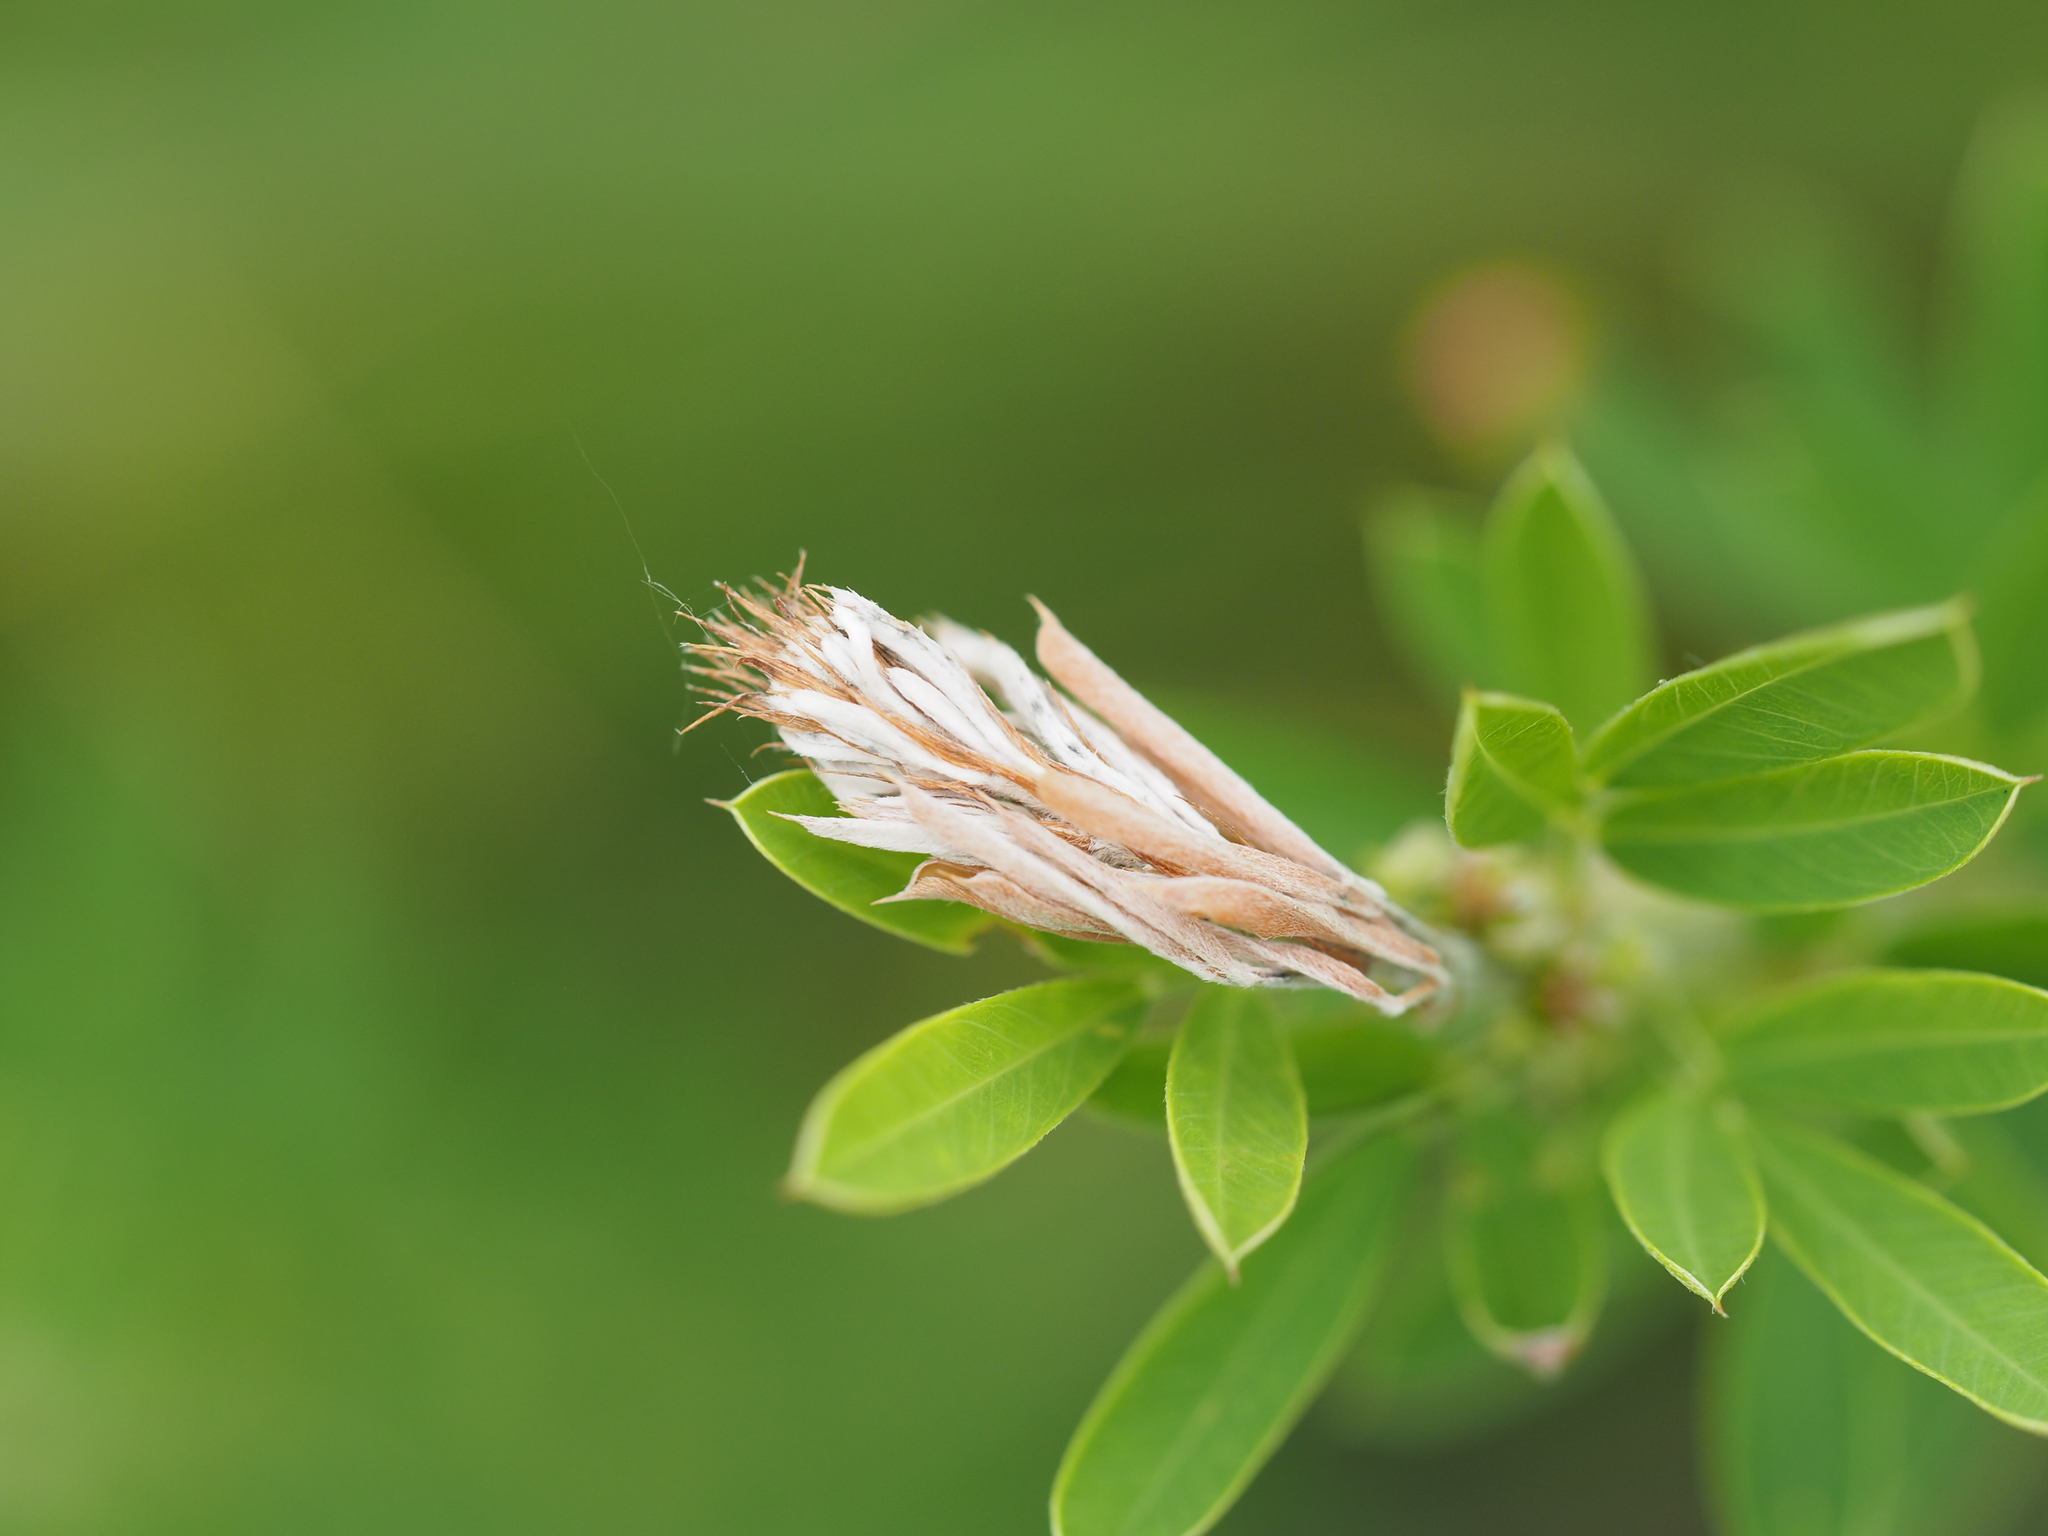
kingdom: Plantae
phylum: Tracheophyta
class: Magnoliopsida
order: Fabales
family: Fabaceae
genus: Lespedeza
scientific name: Lespedeza cuneata
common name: Chinese bush-clover
